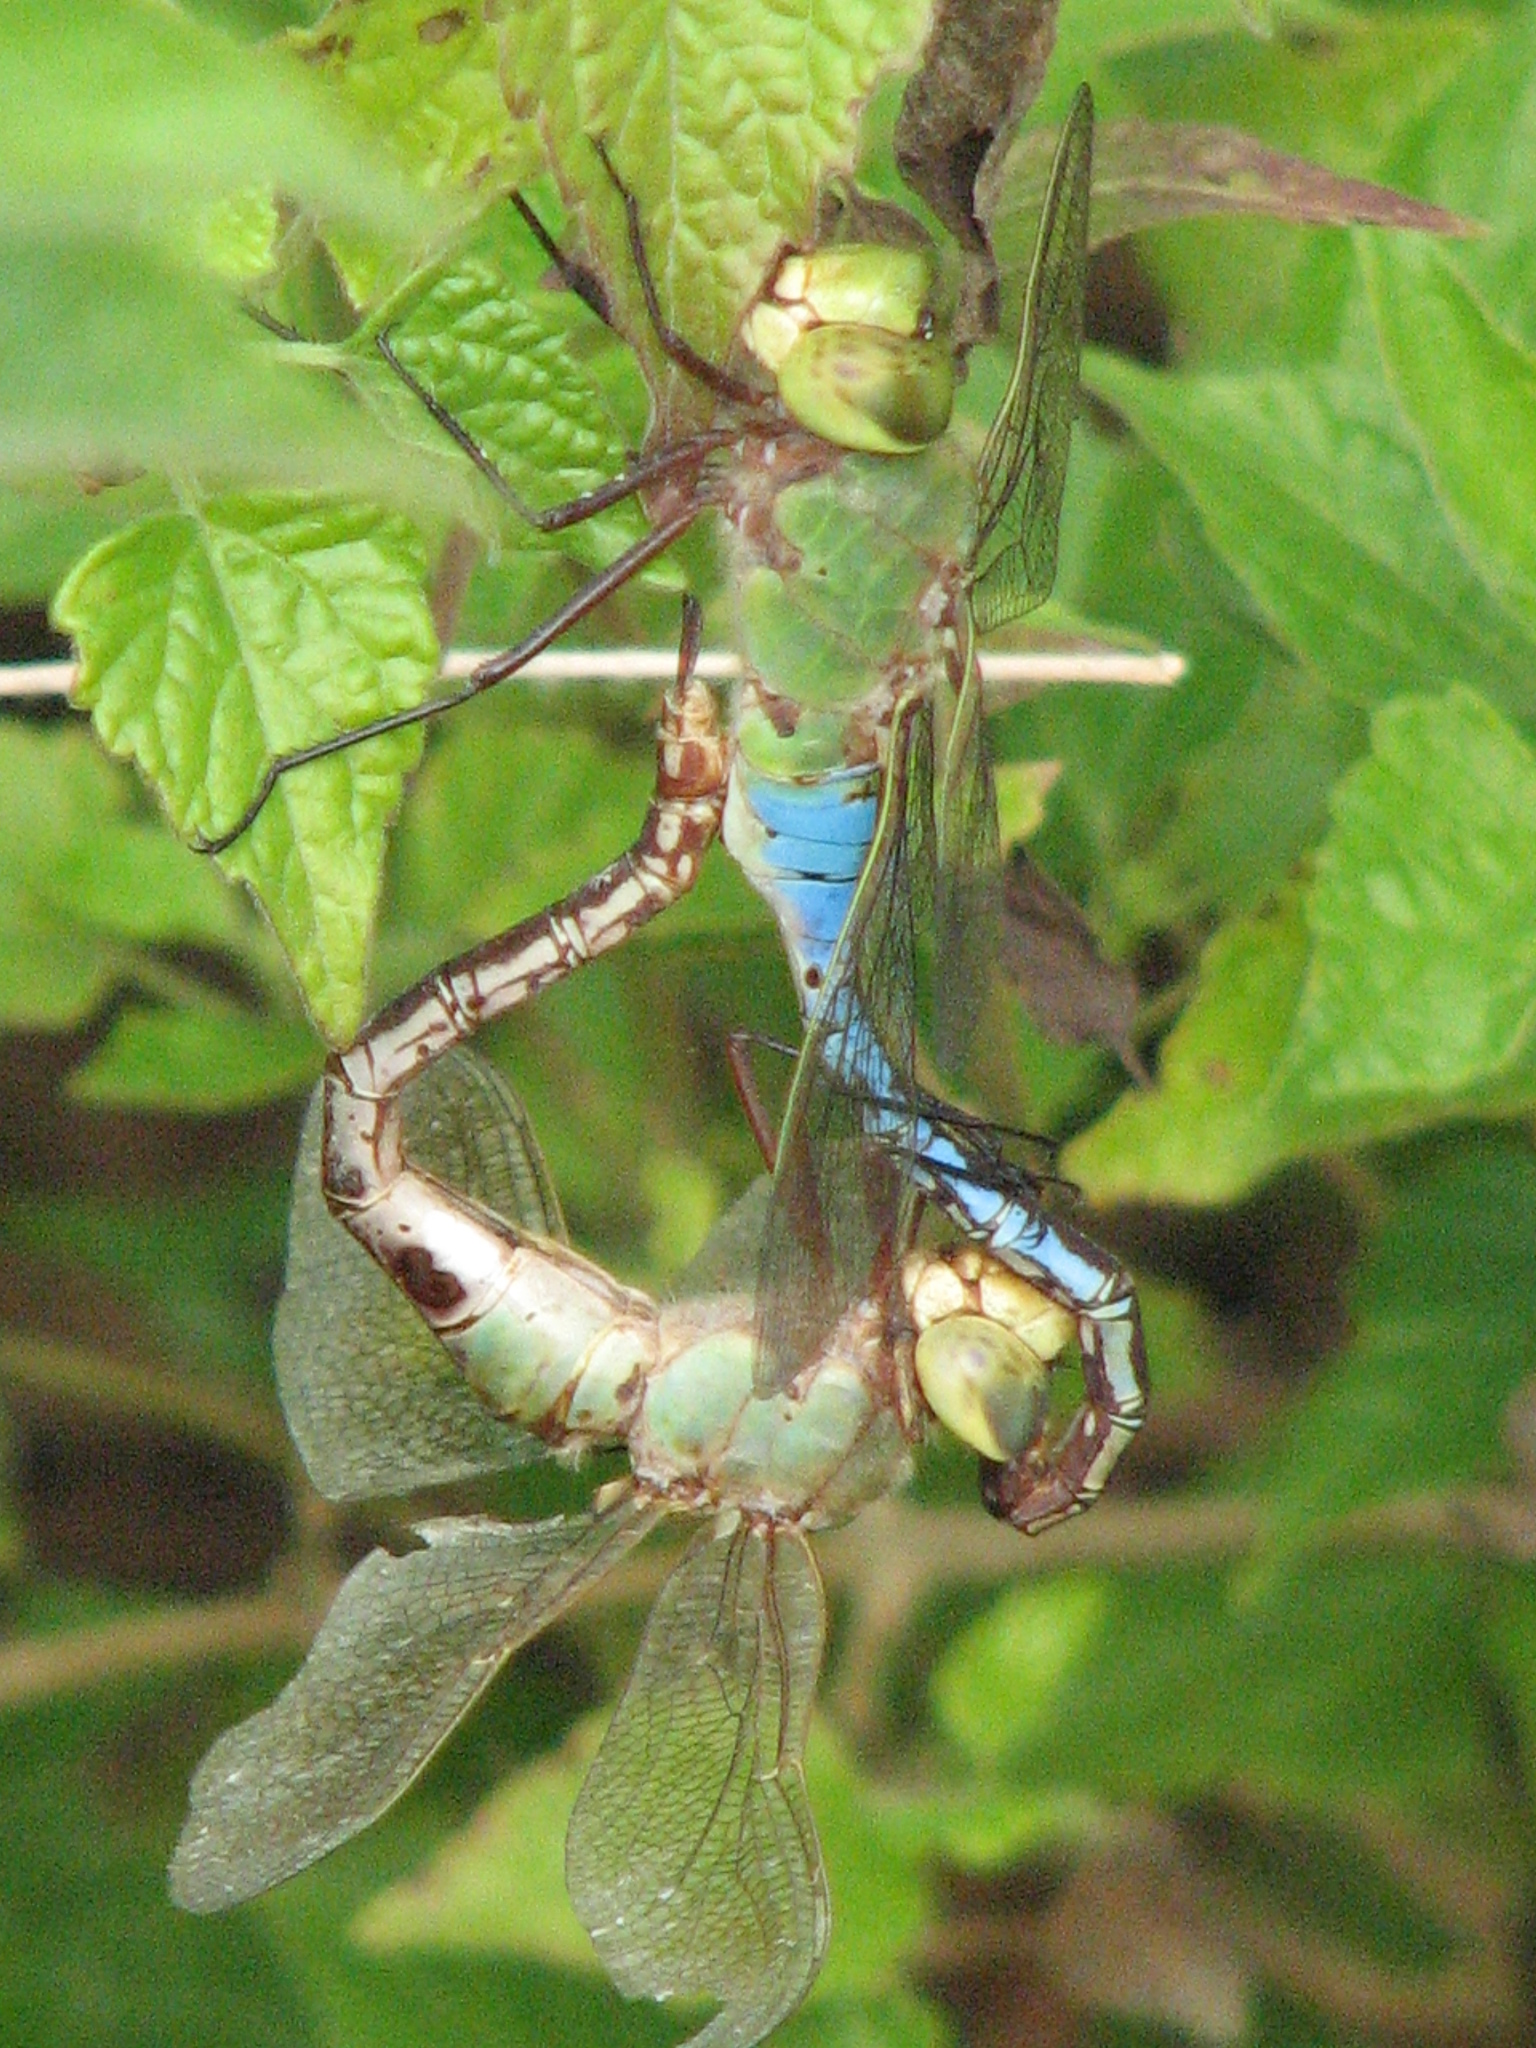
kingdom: Animalia
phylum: Arthropoda
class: Insecta
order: Odonata
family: Aeshnidae
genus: Anax
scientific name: Anax junius
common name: Common green darner
